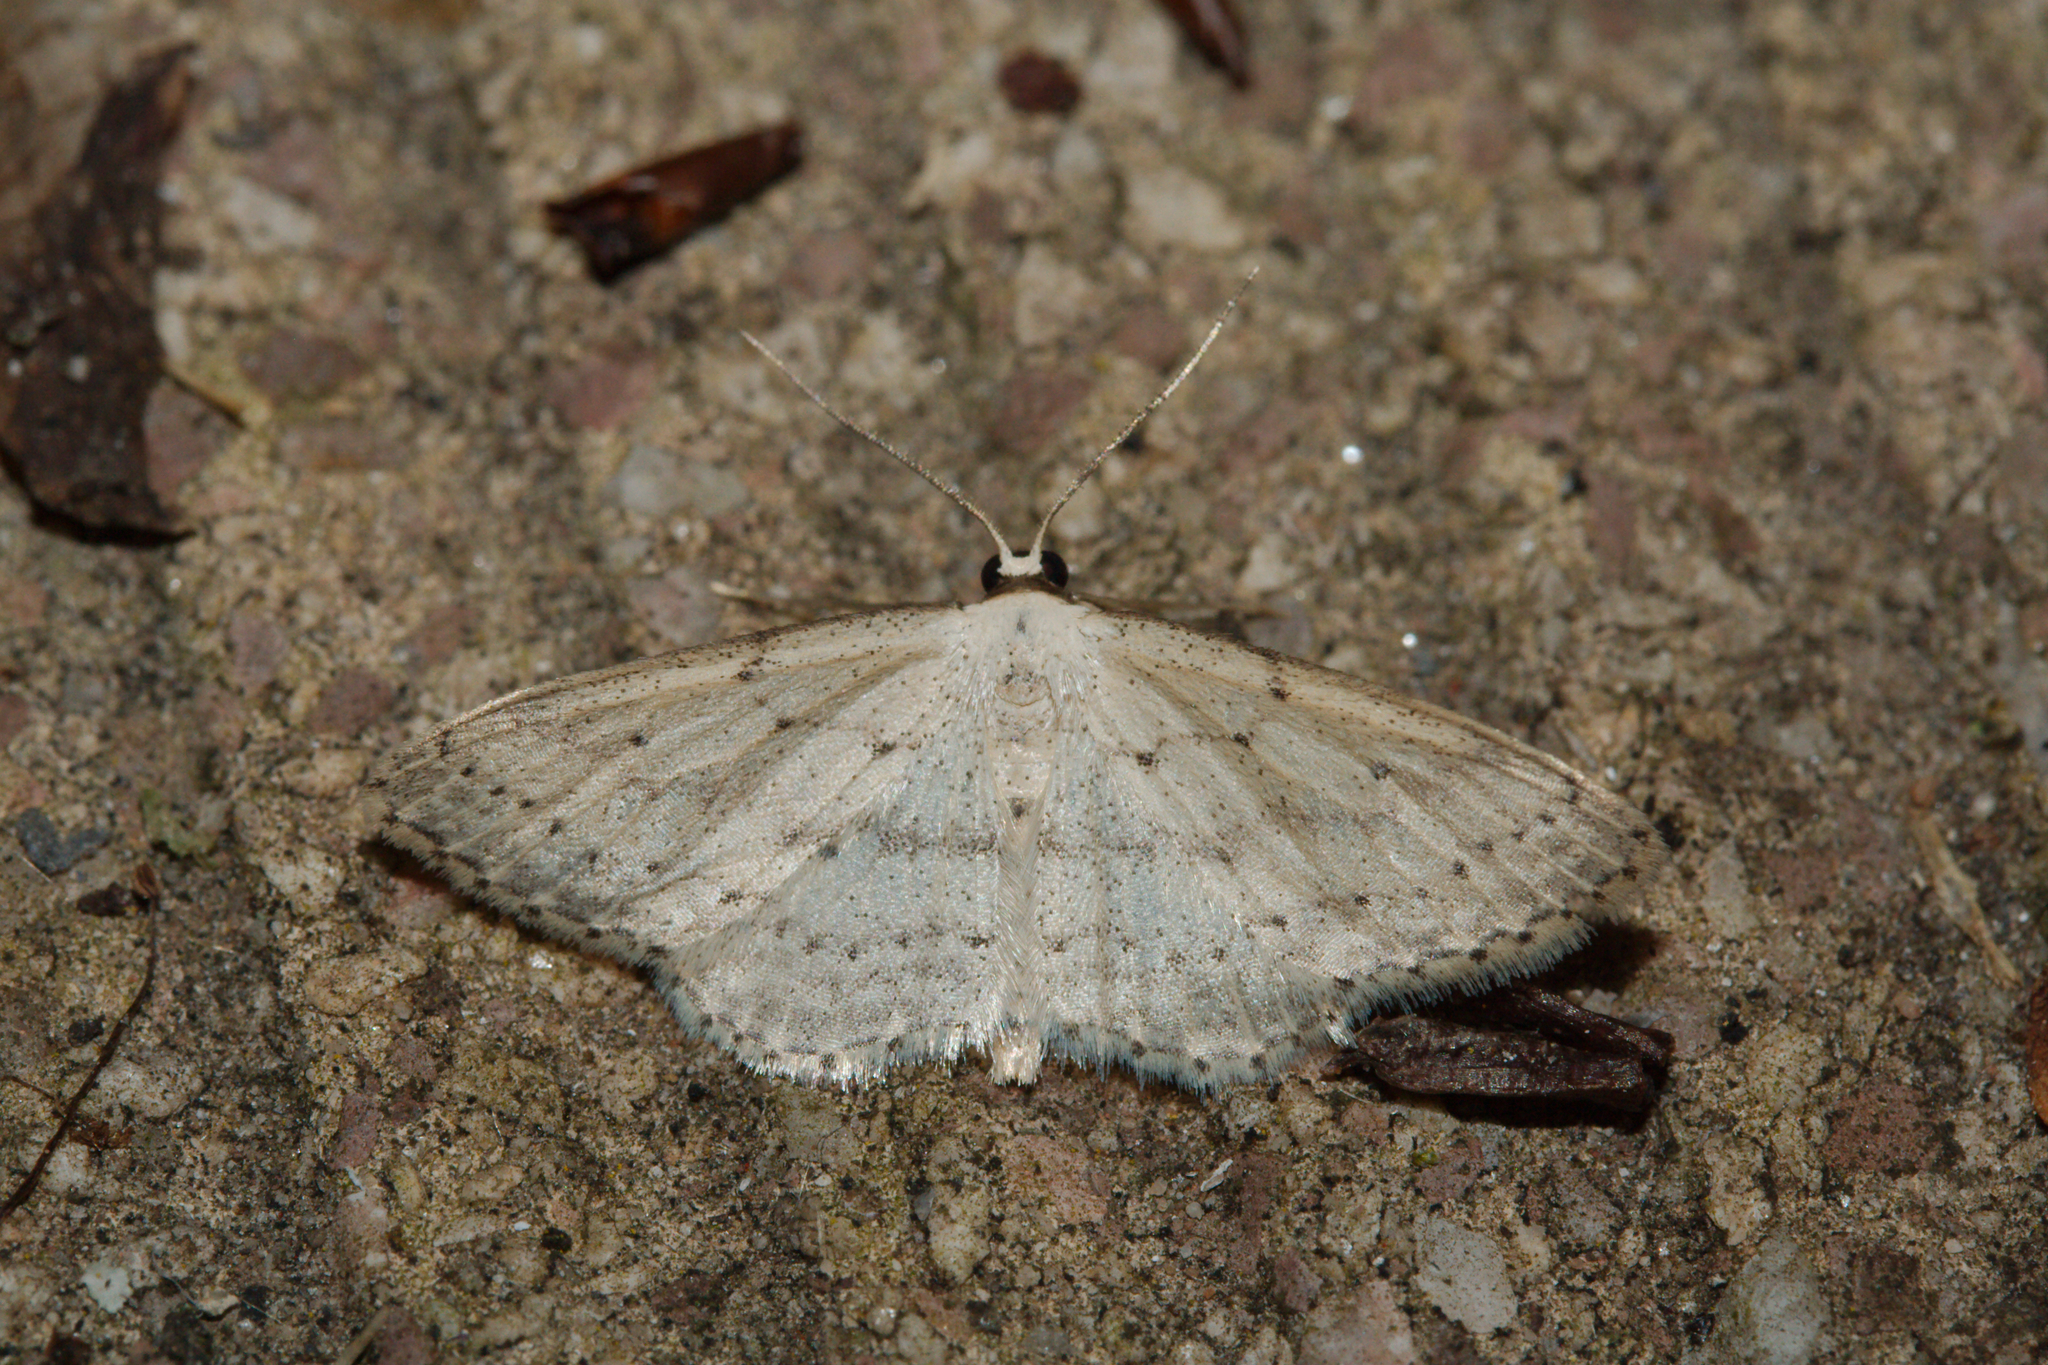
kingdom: Animalia
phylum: Arthropoda
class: Insecta
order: Lepidoptera
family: Geometridae
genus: Idaea
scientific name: Idaea seriata
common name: Small dusty wave
